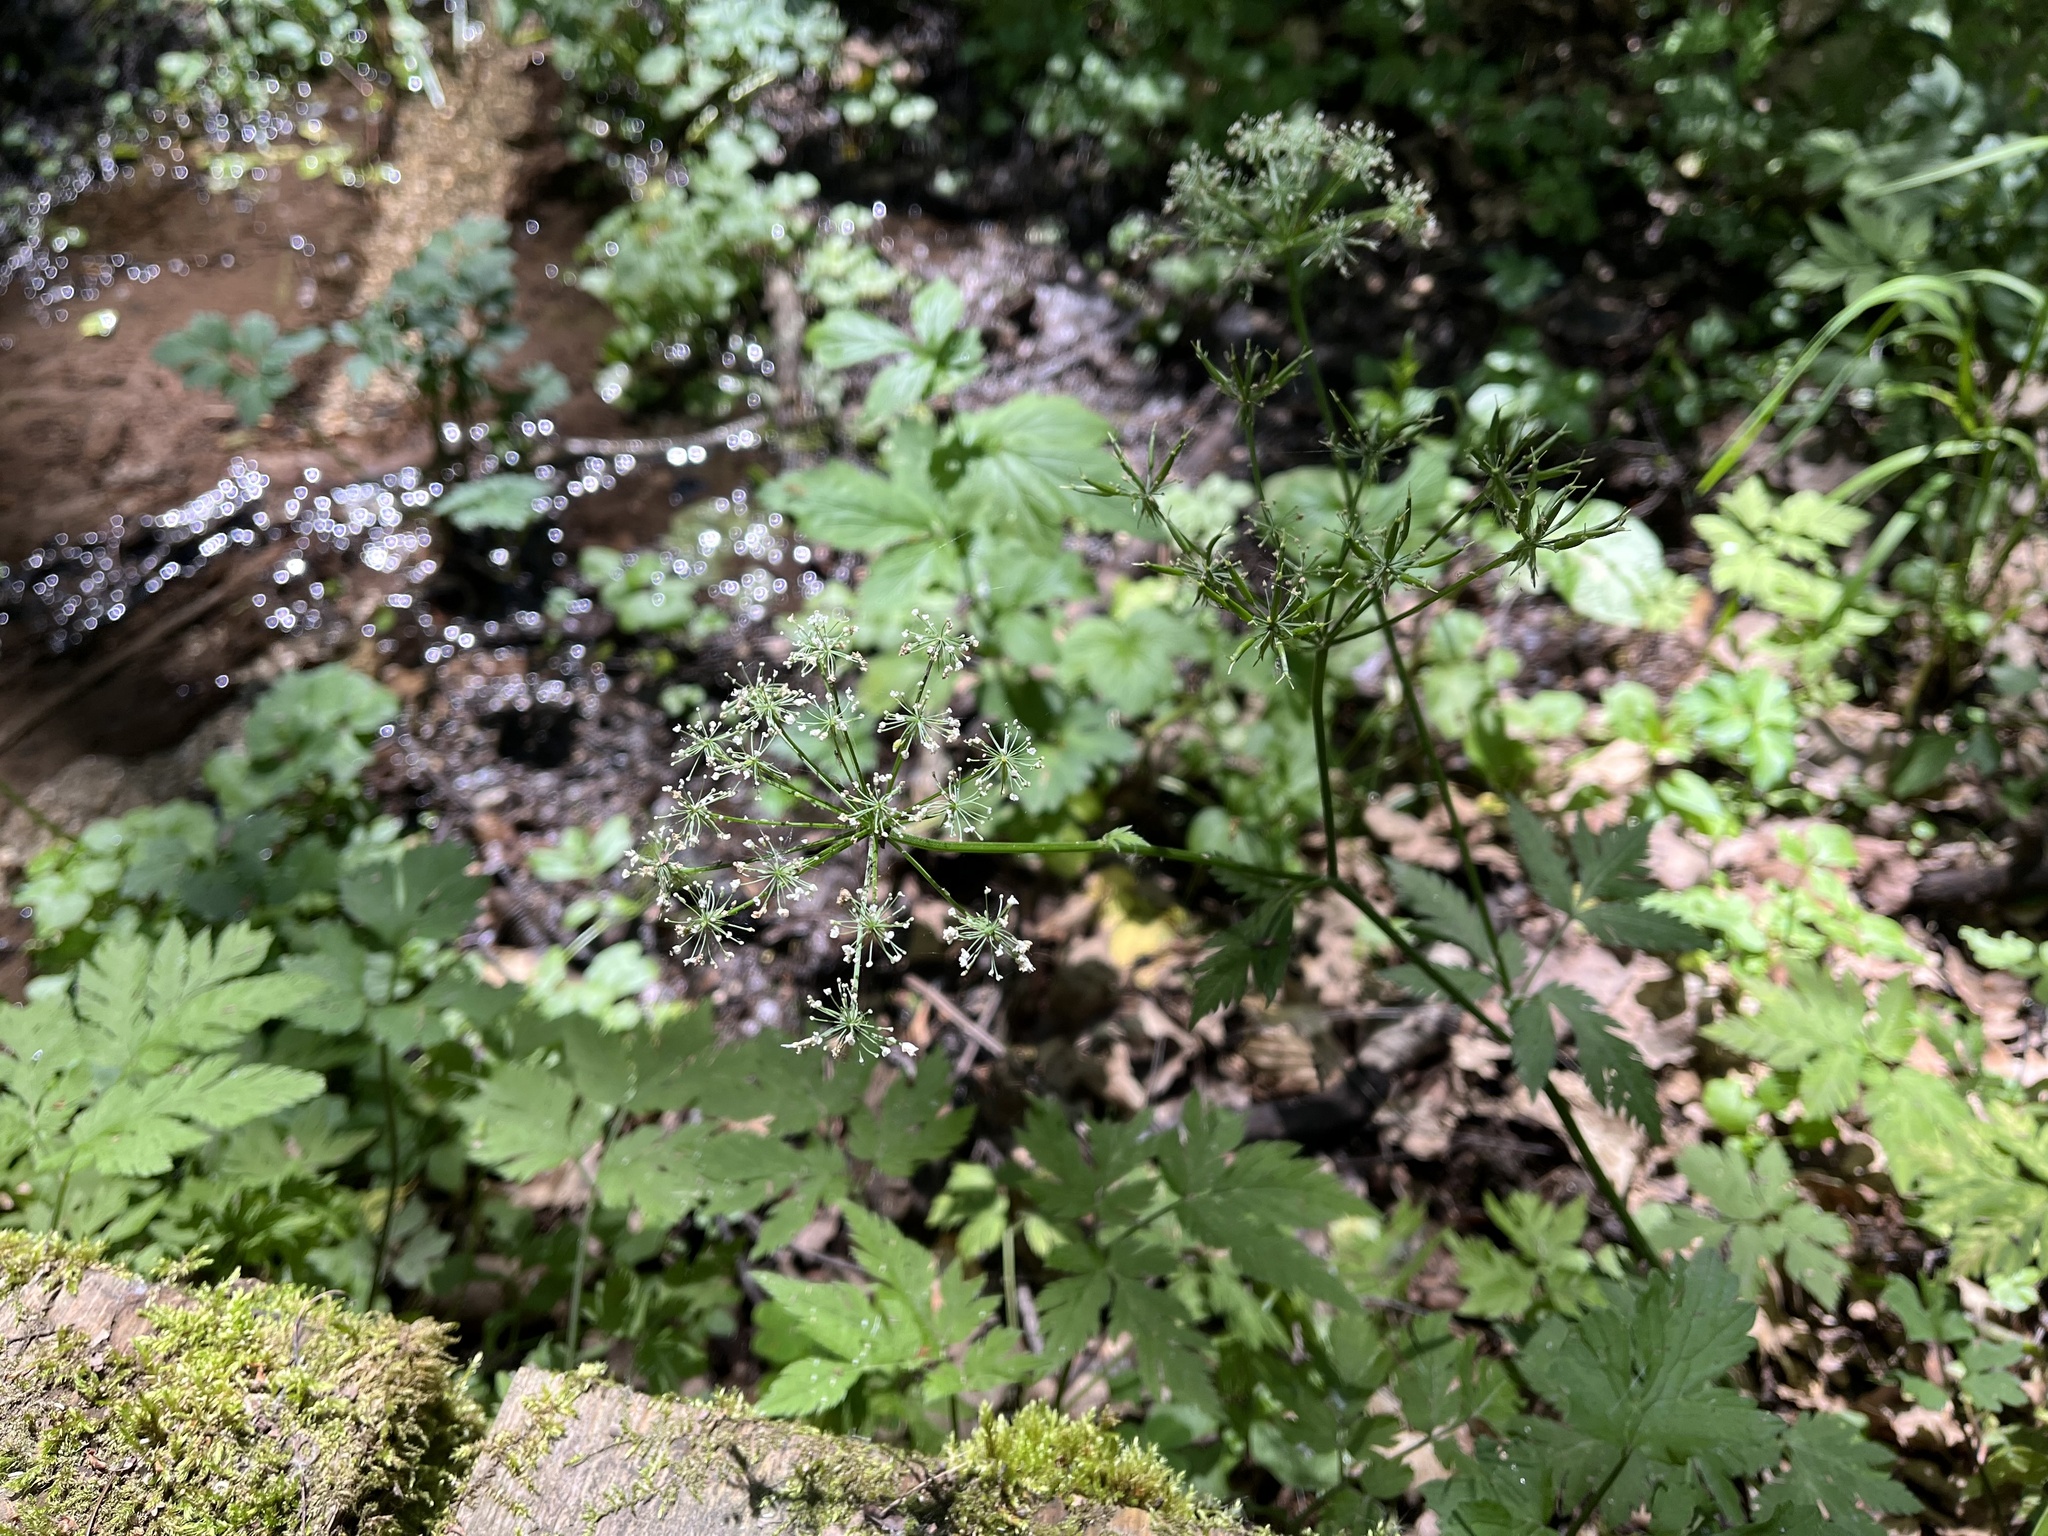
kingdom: Plantae
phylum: Tracheophyta
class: Magnoliopsida
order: Apiales
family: Apiaceae
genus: Chaerophyllum
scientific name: Chaerophyllum hirsutum
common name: Hairy chervil
